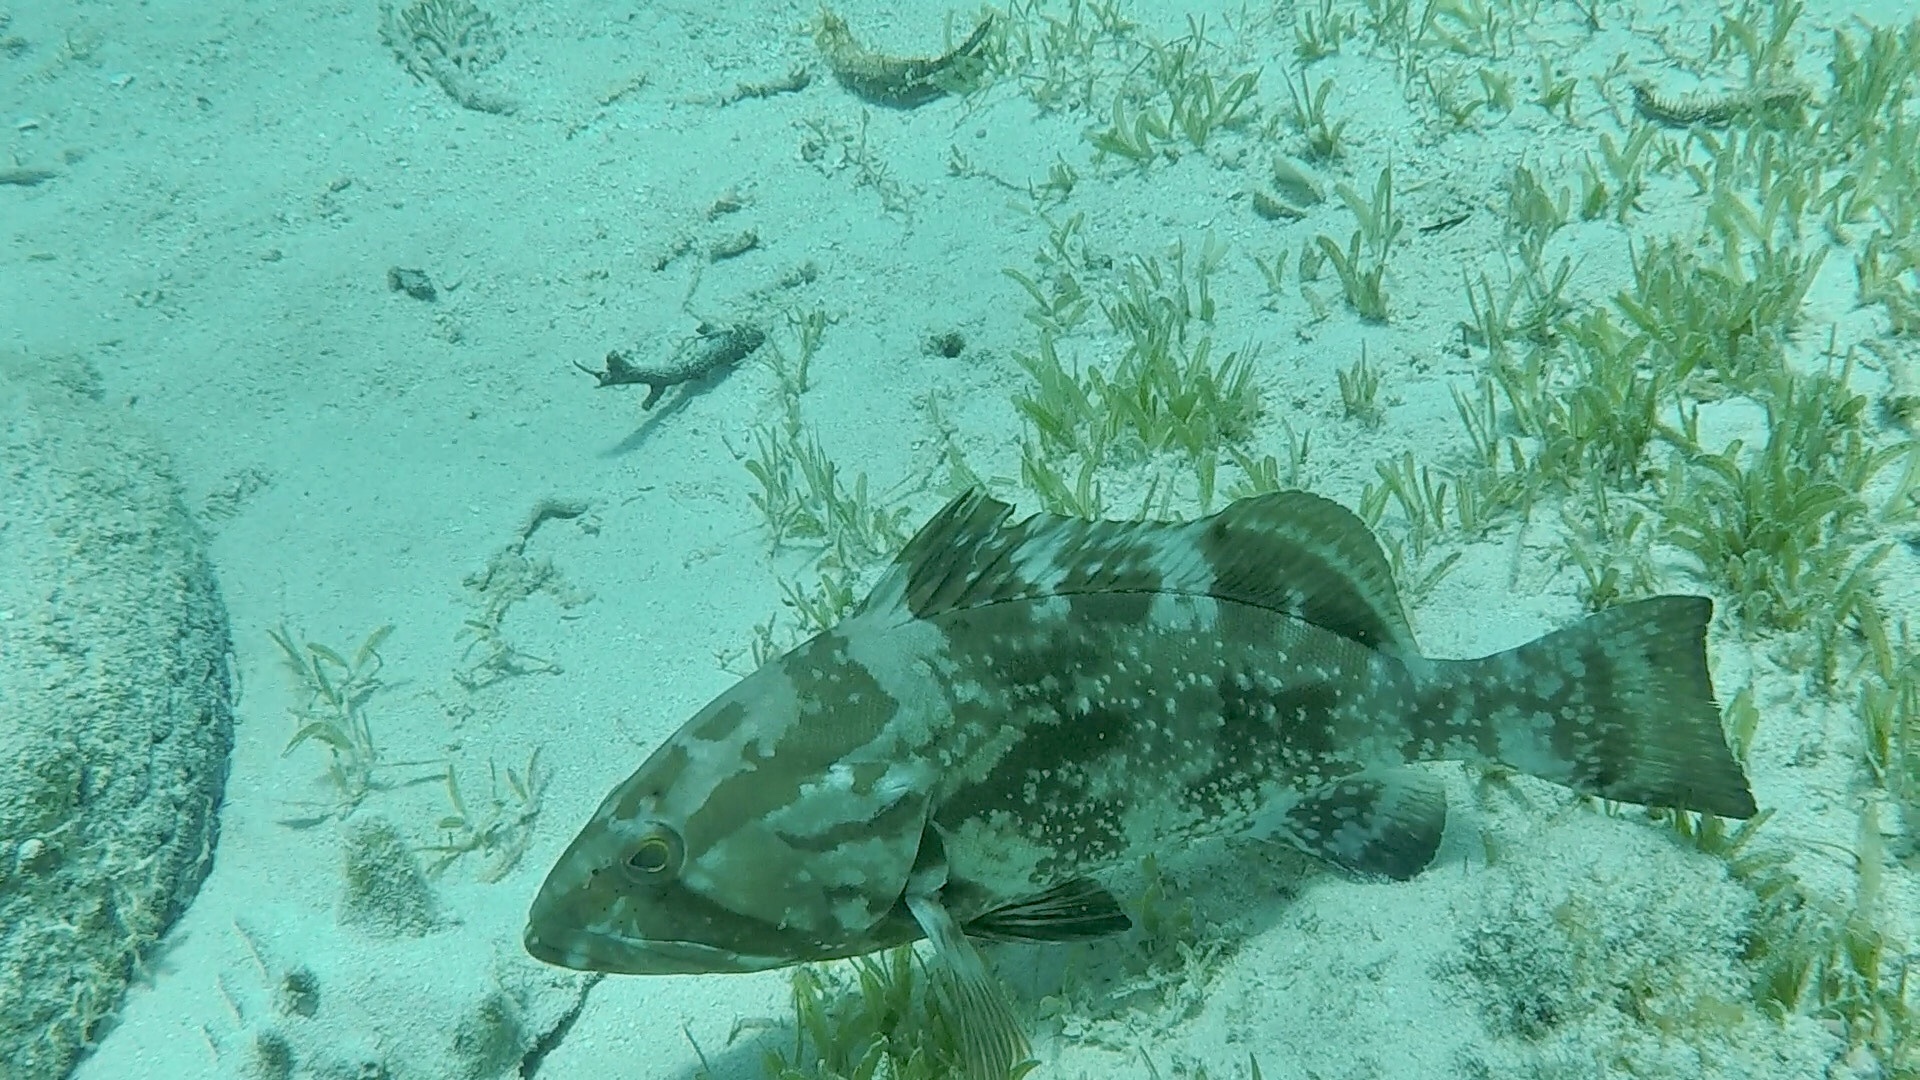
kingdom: Animalia
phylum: Chordata
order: Perciformes
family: Serranidae
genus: Epinephelus
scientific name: Epinephelus morio
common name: Red grouper
